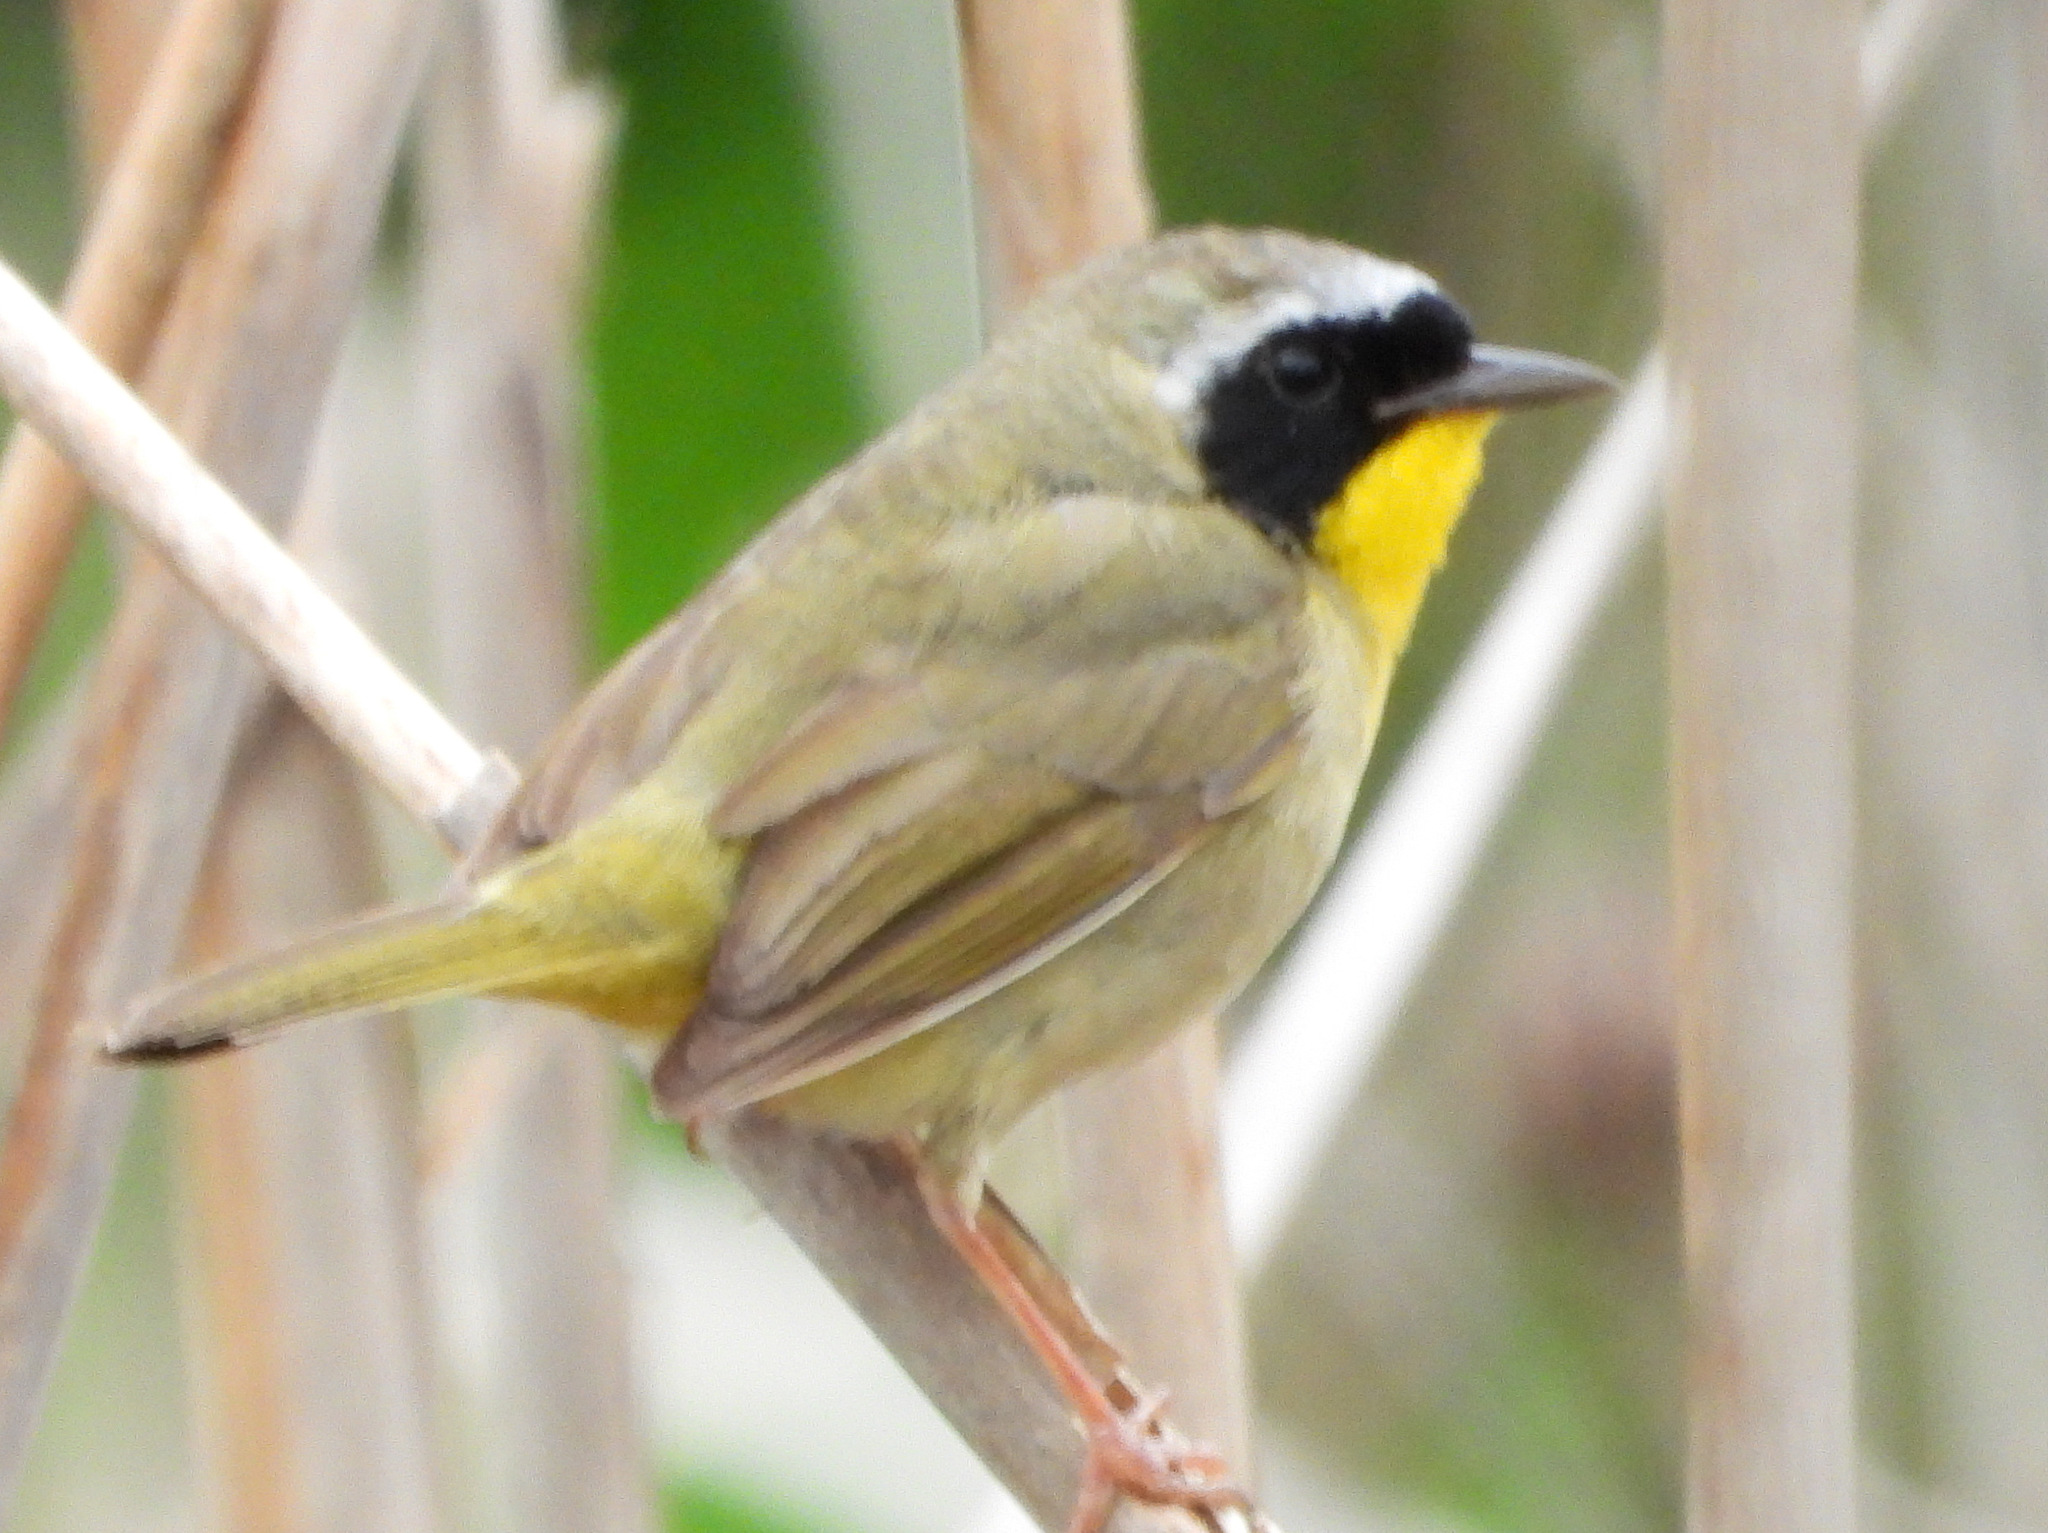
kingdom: Animalia
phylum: Chordata
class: Aves
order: Passeriformes
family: Parulidae
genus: Geothlypis
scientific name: Geothlypis trichas
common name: Common yellowthroat
